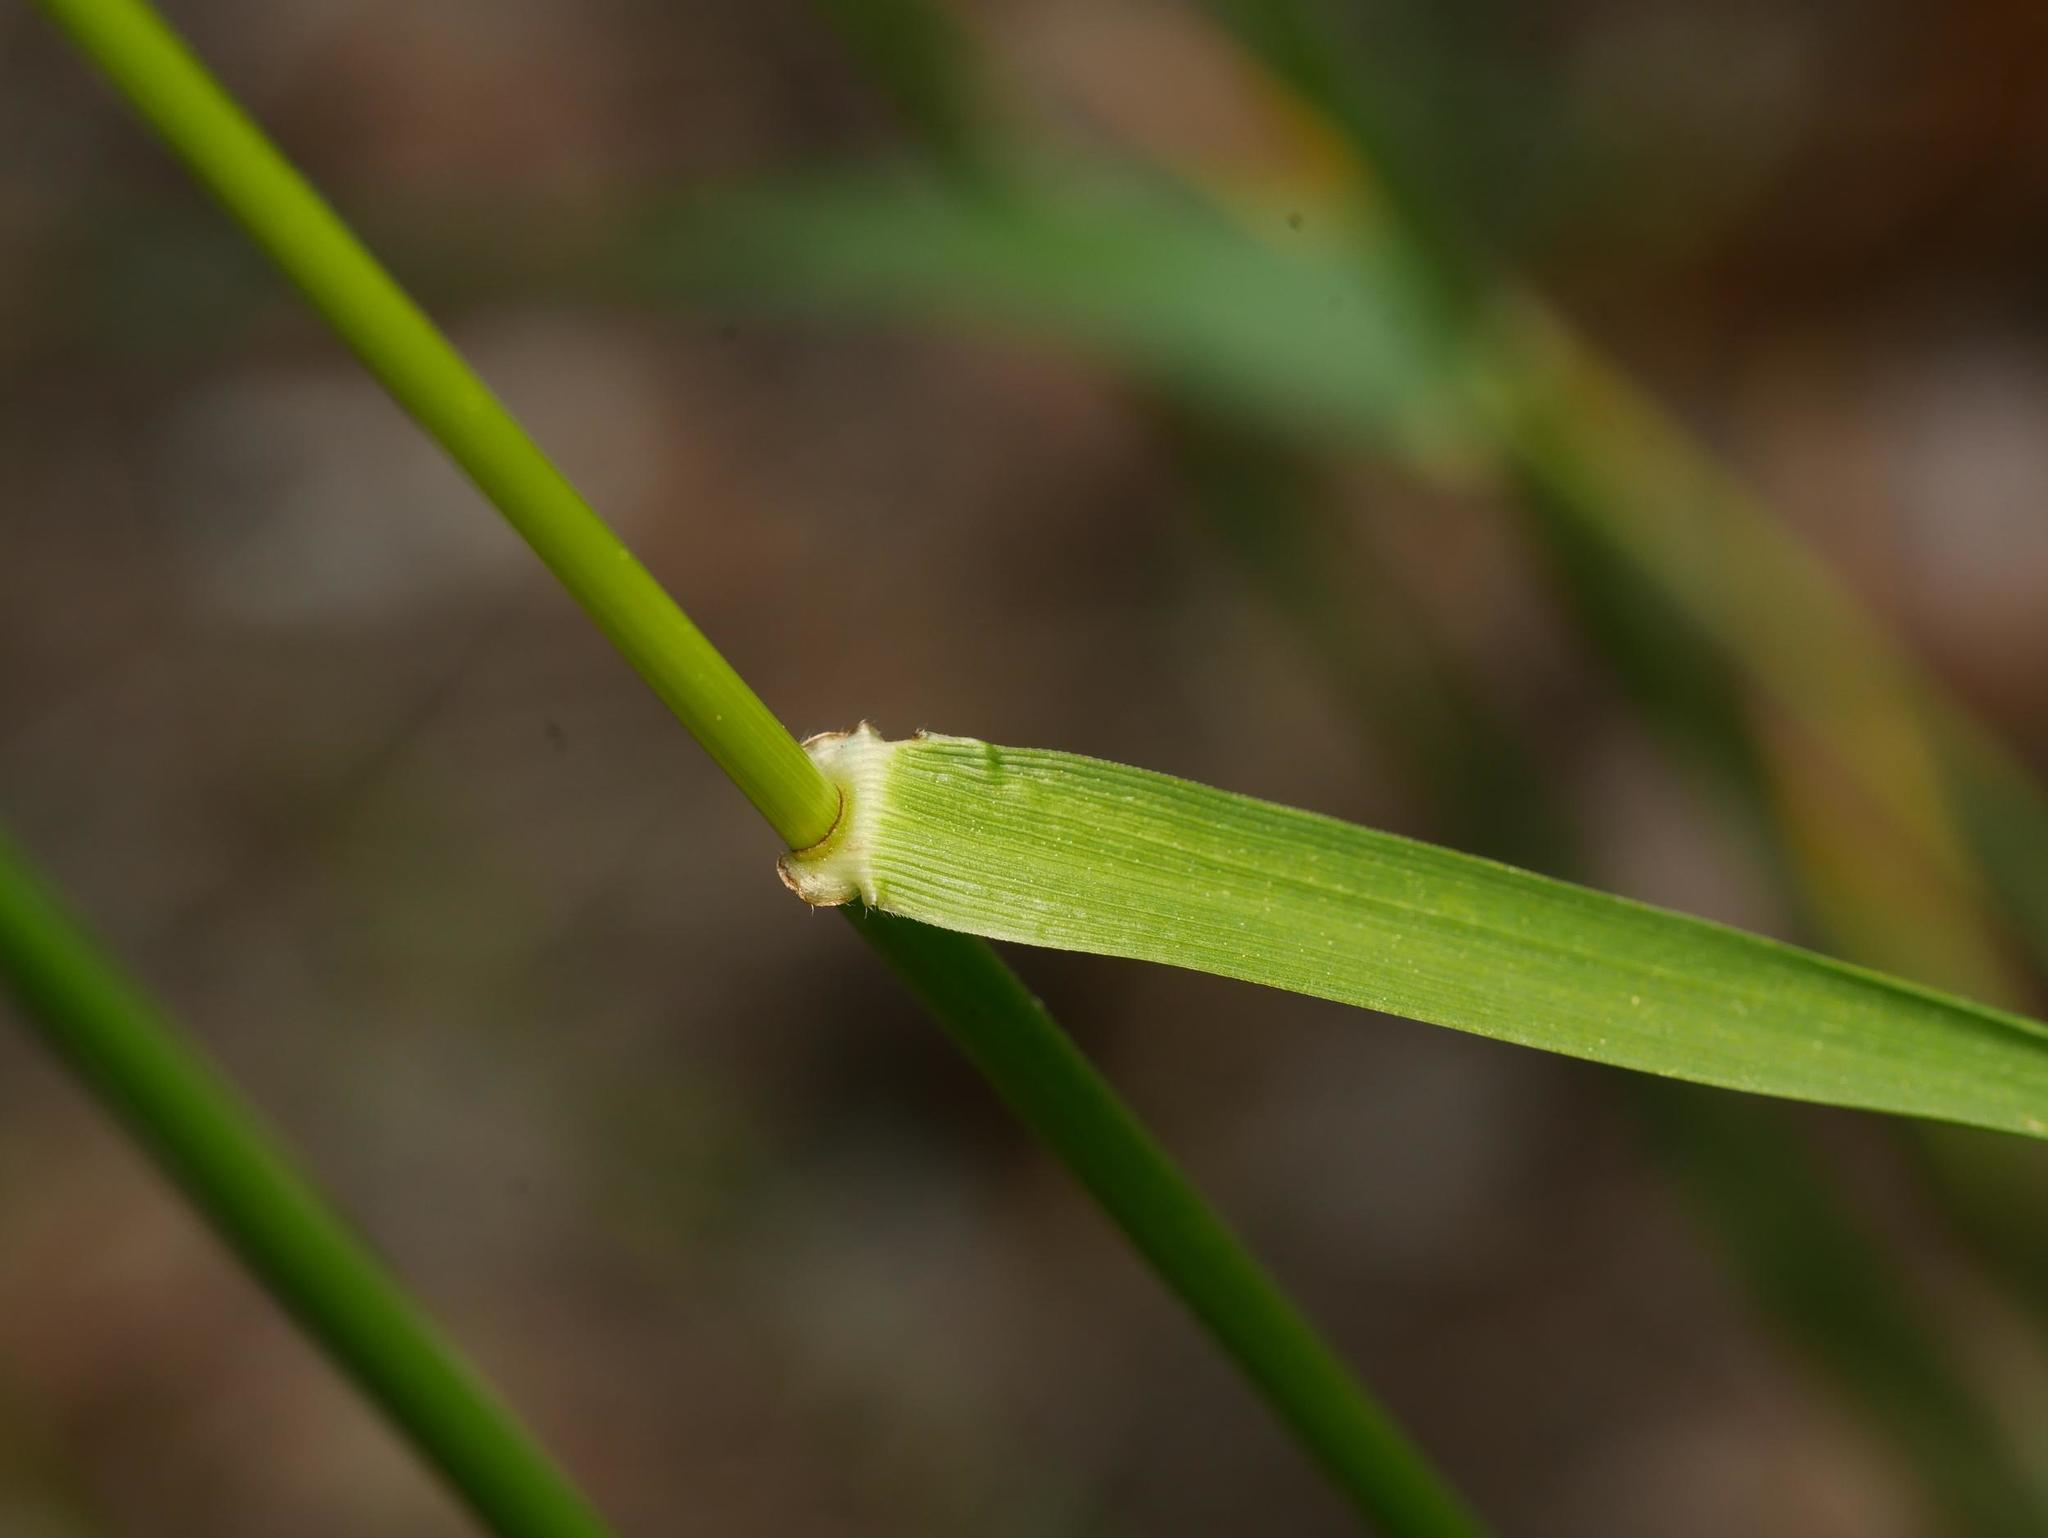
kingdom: Plantae
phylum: Tracheophyta
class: Liliopsida
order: Poales
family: Poaceae
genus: Lolium
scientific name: Lolium arundinaceum
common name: Reed fescue
